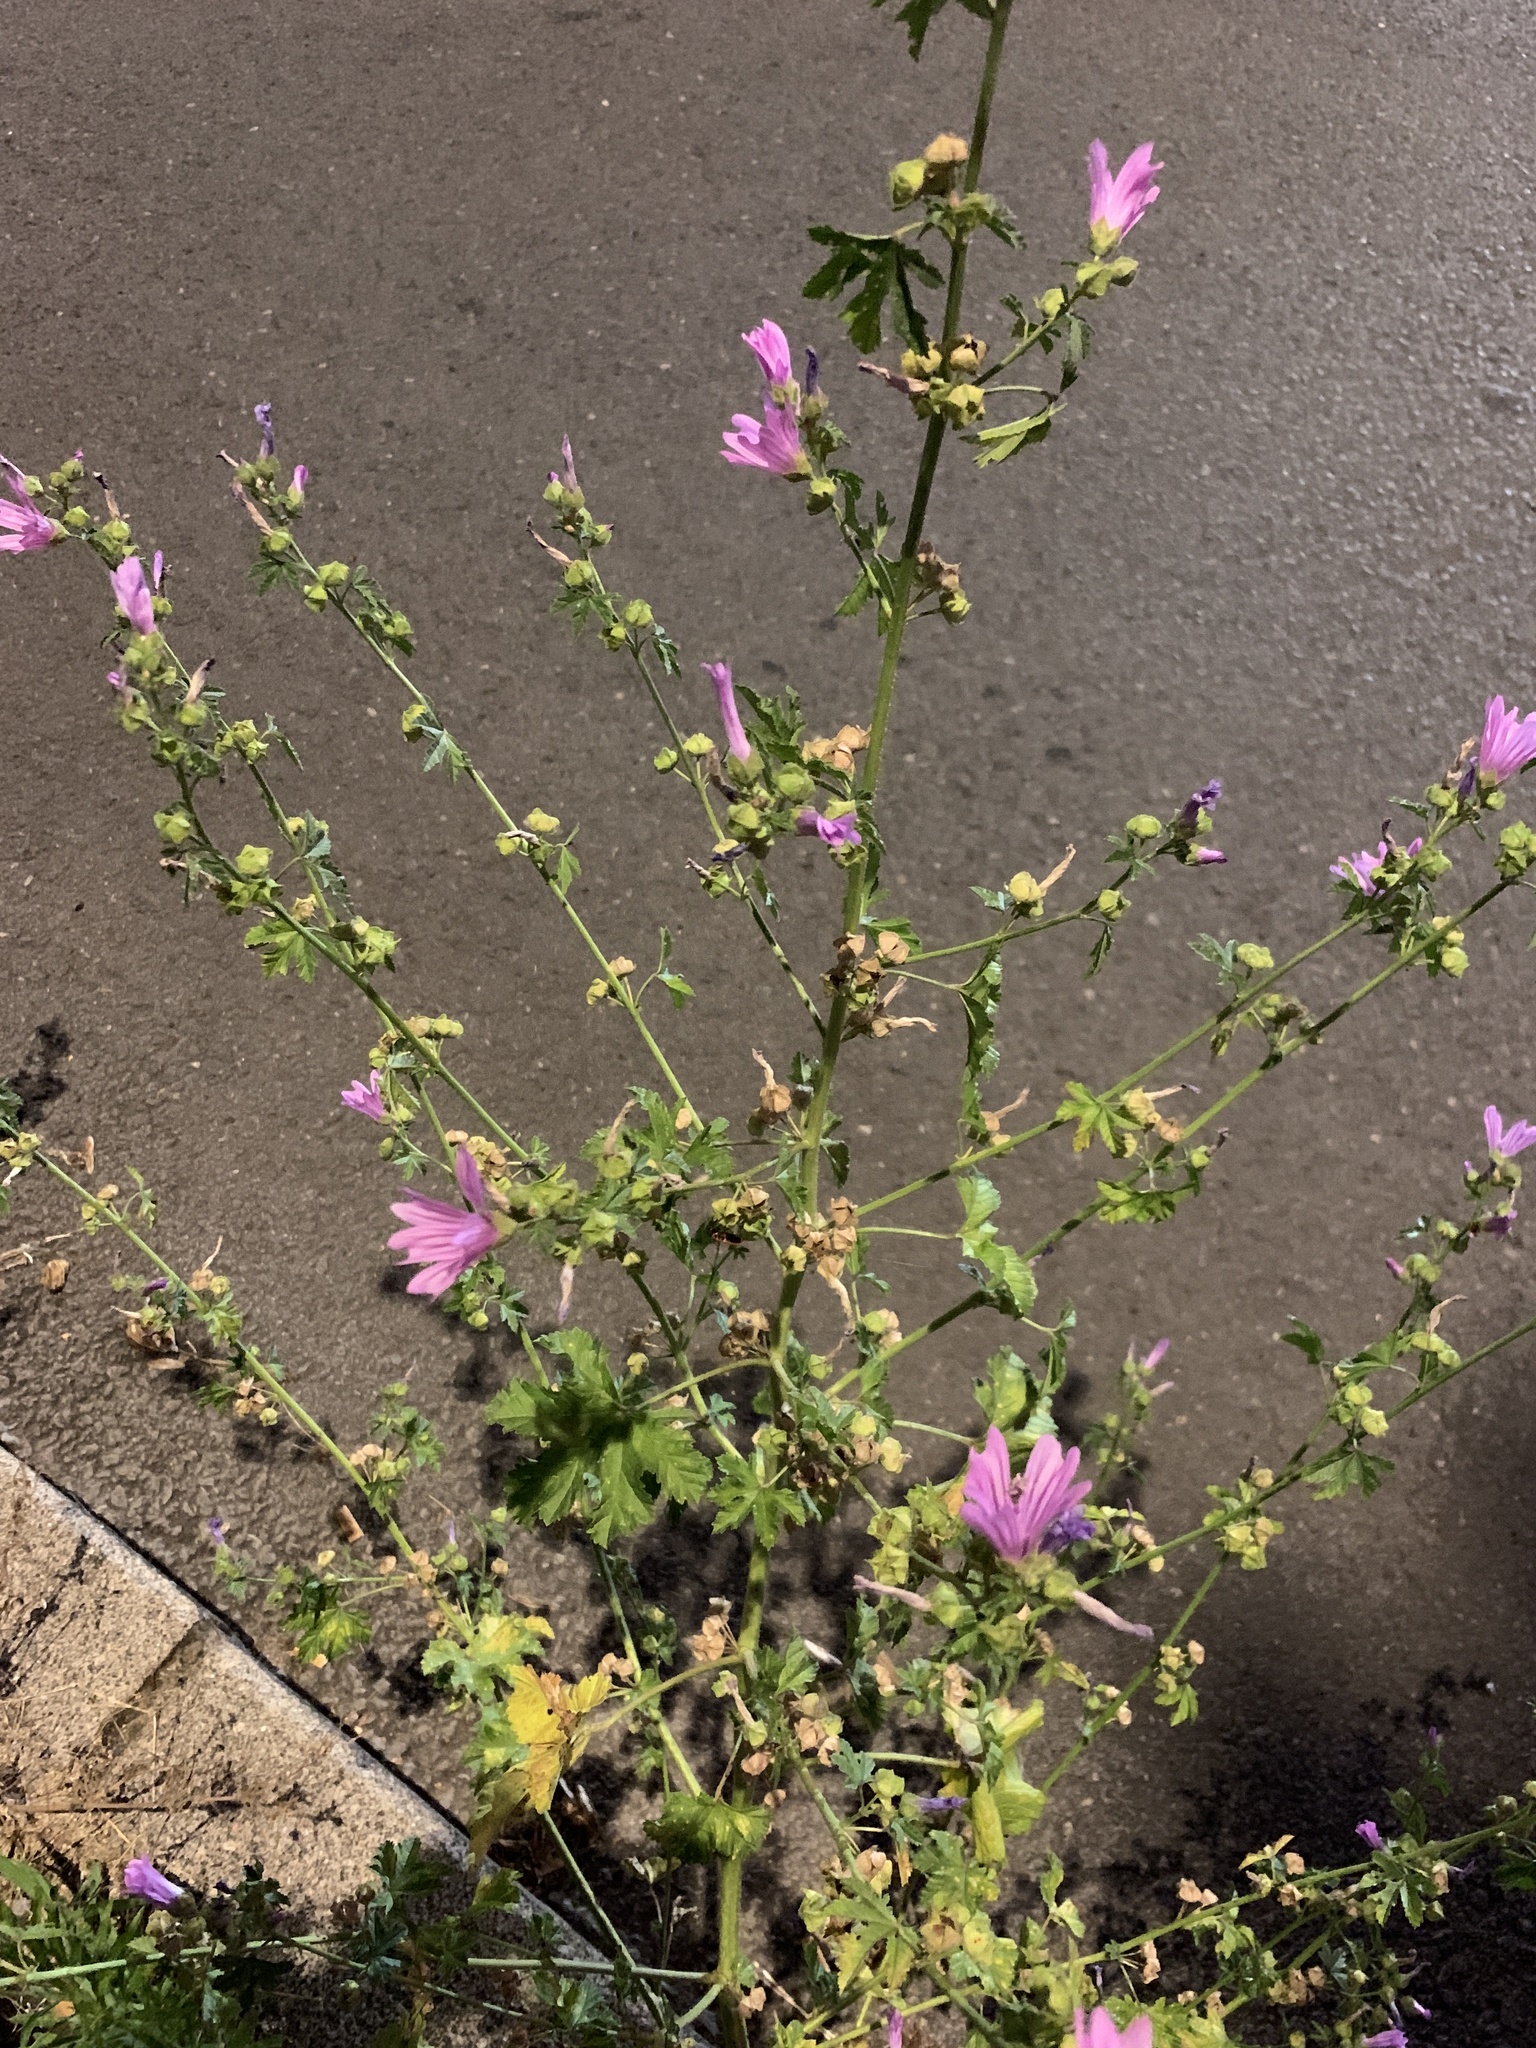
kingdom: Plantae
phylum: Tracheophyta
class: Magnoliopsida
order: Malvales
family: Malvaceae
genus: Malva
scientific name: Malva sylvestris
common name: Common mallow
